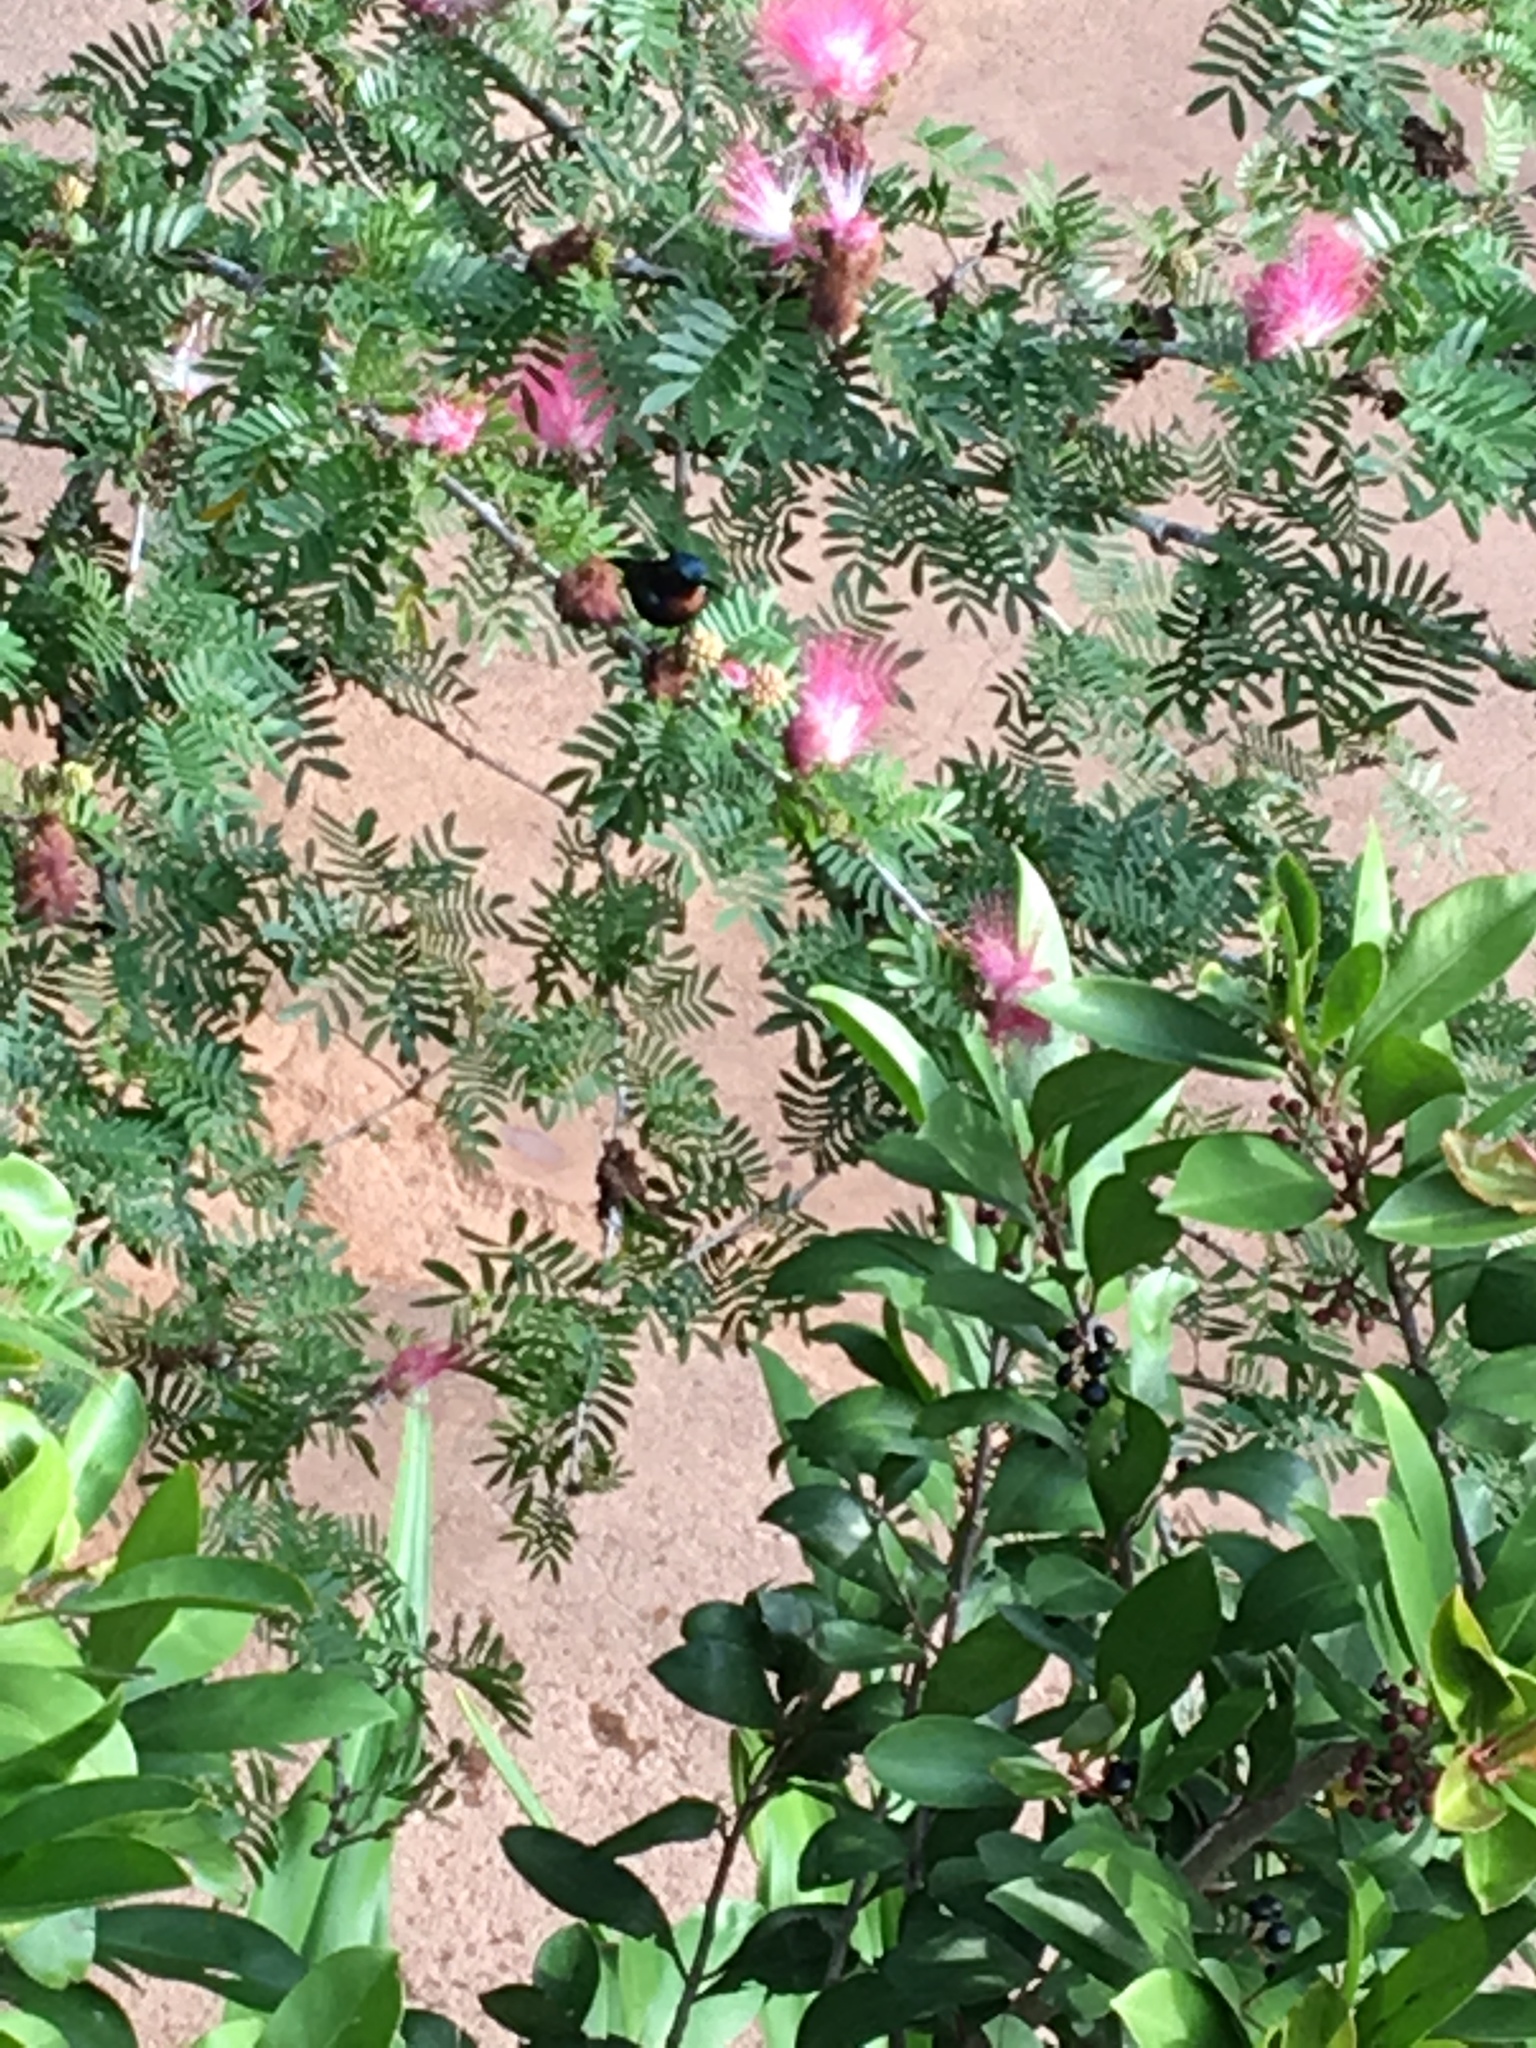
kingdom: Animalia
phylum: Chordata
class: Aves
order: Passeriformes
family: Nectariniidae
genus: Leptocoma
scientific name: Leptocoma brasiliana
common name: Van hasselt's sunbird
